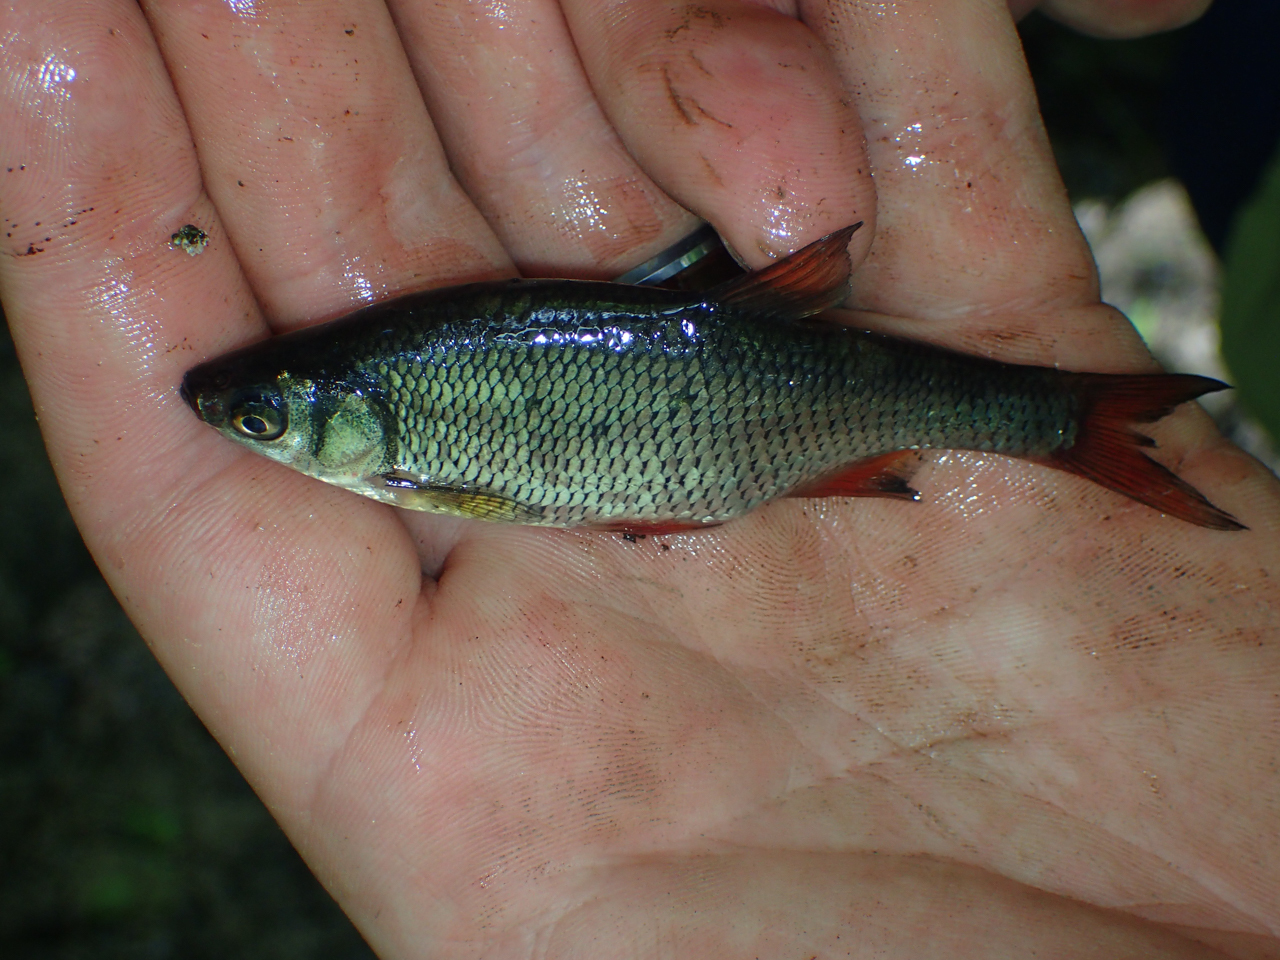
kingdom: Animalia
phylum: Chordata
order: Cypriniformes
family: Cyprinidae
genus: Notemigonus
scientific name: Notemigonus crysoleucas
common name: Golden shiner
